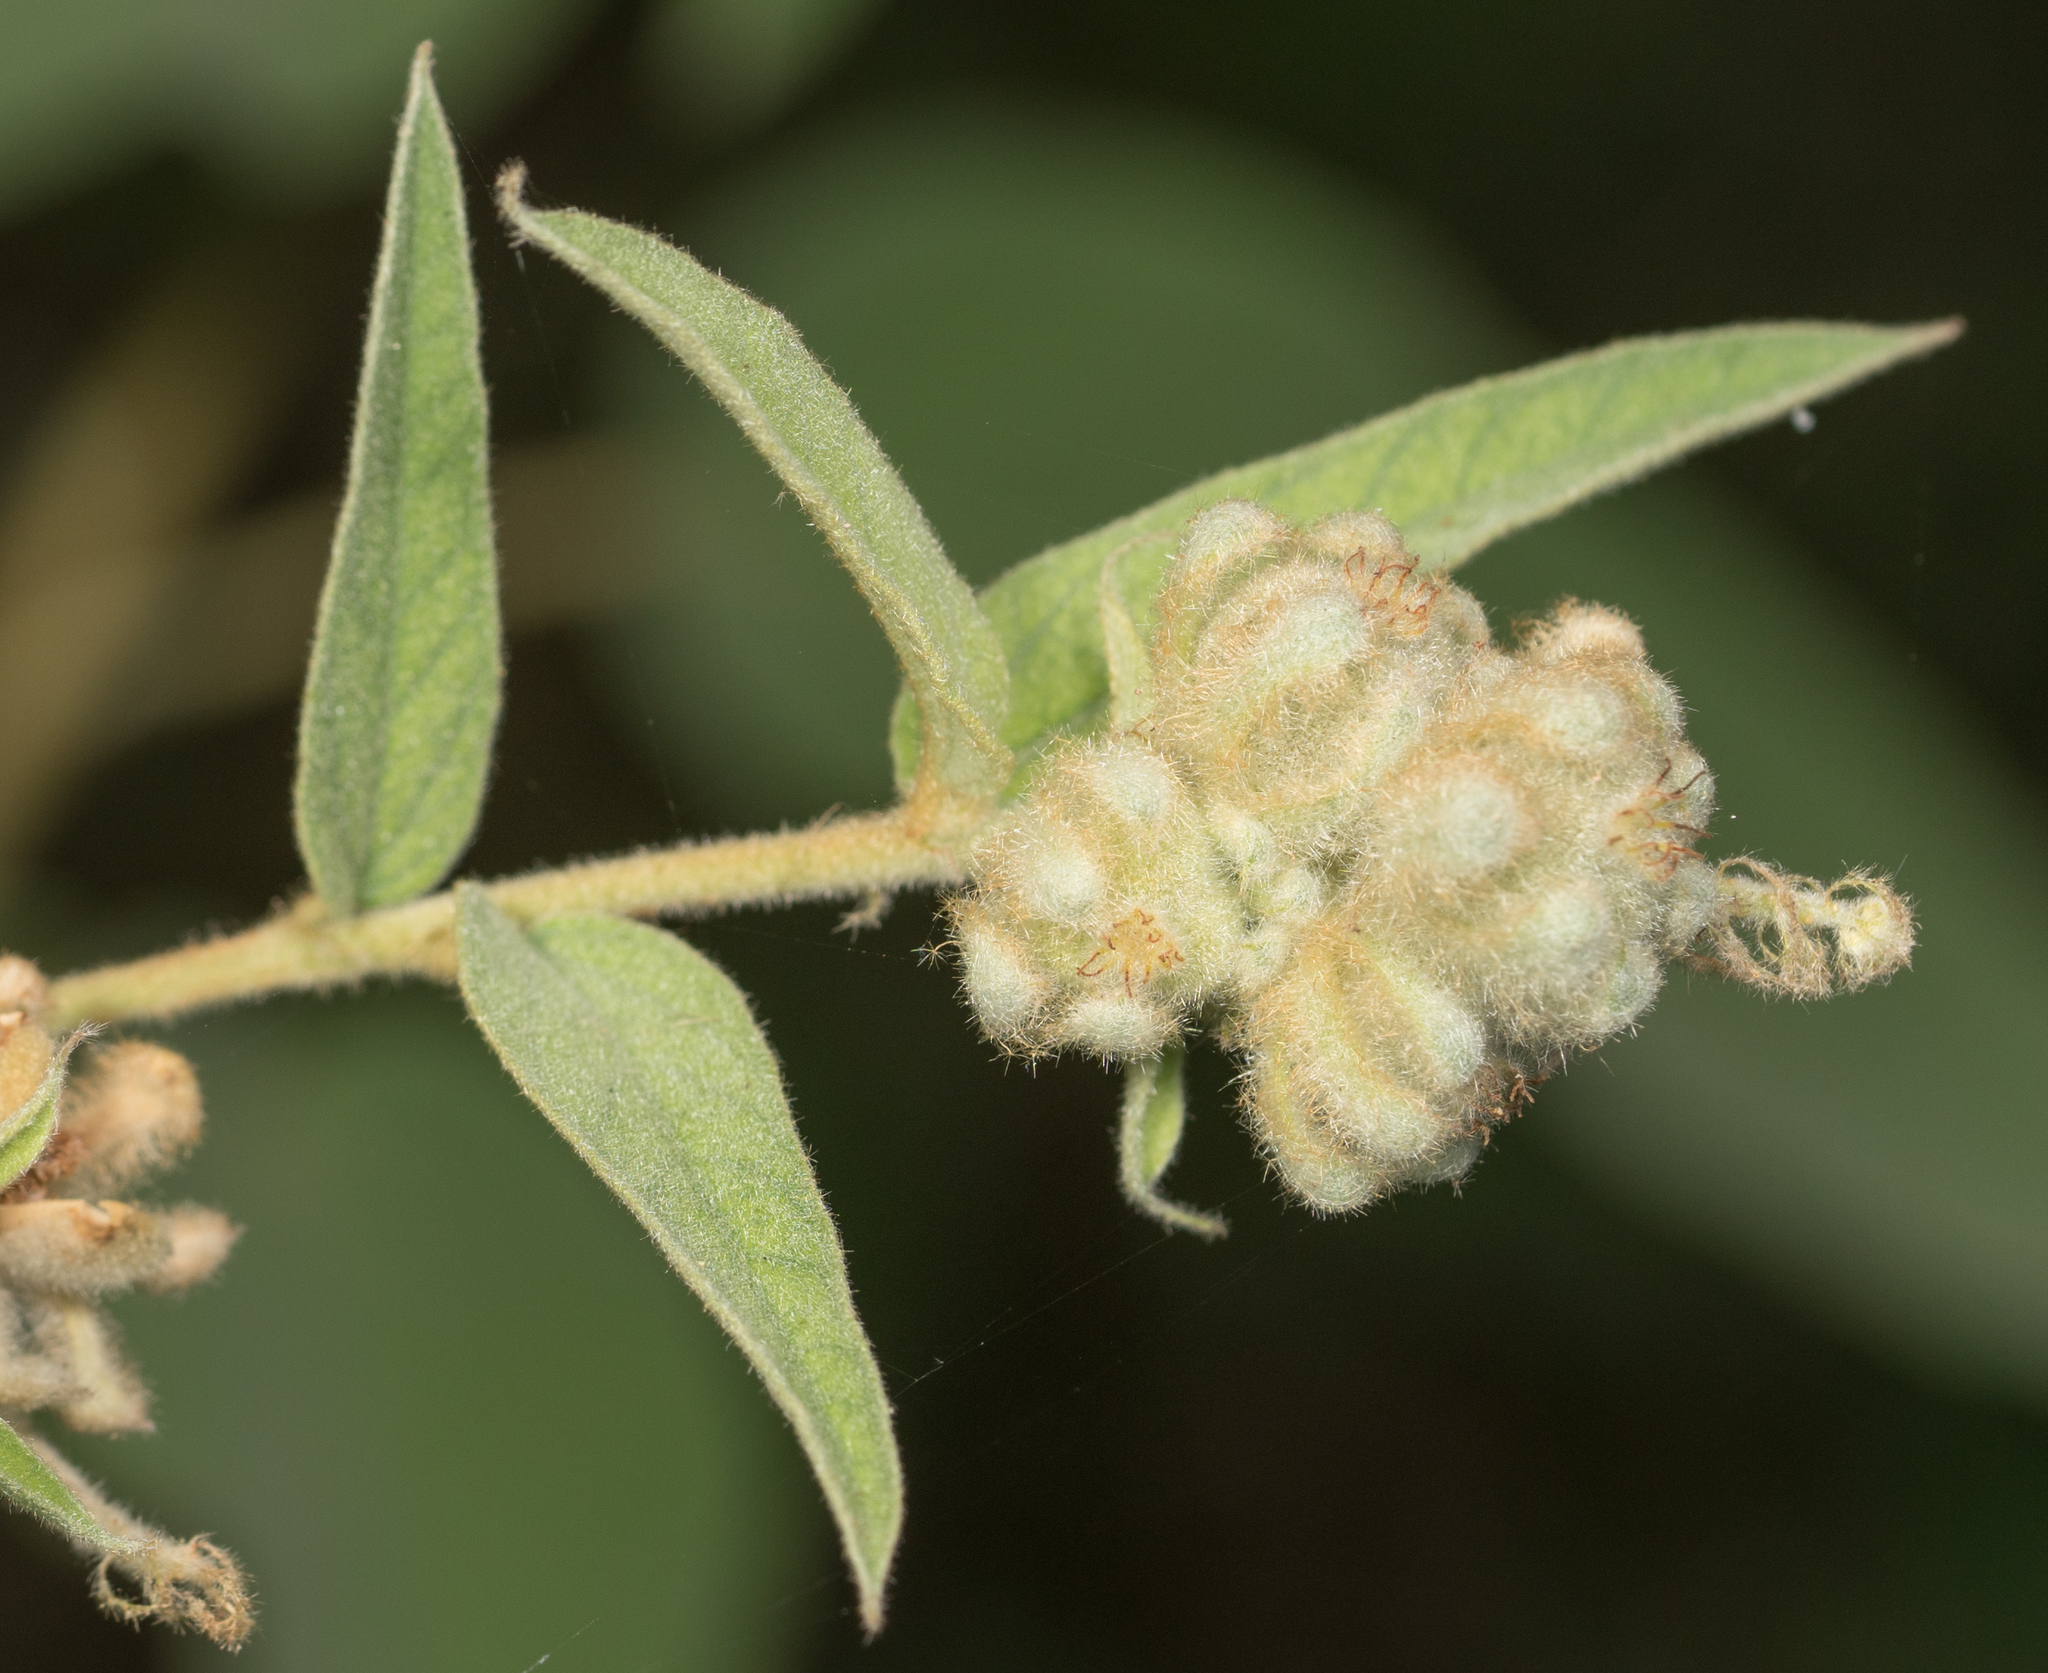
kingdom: Plantae
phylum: Tracheophyta
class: Magnoliopsida
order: Malpighiales
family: Euphorbiaceae
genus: Croton
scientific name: Croton lindheimeri
